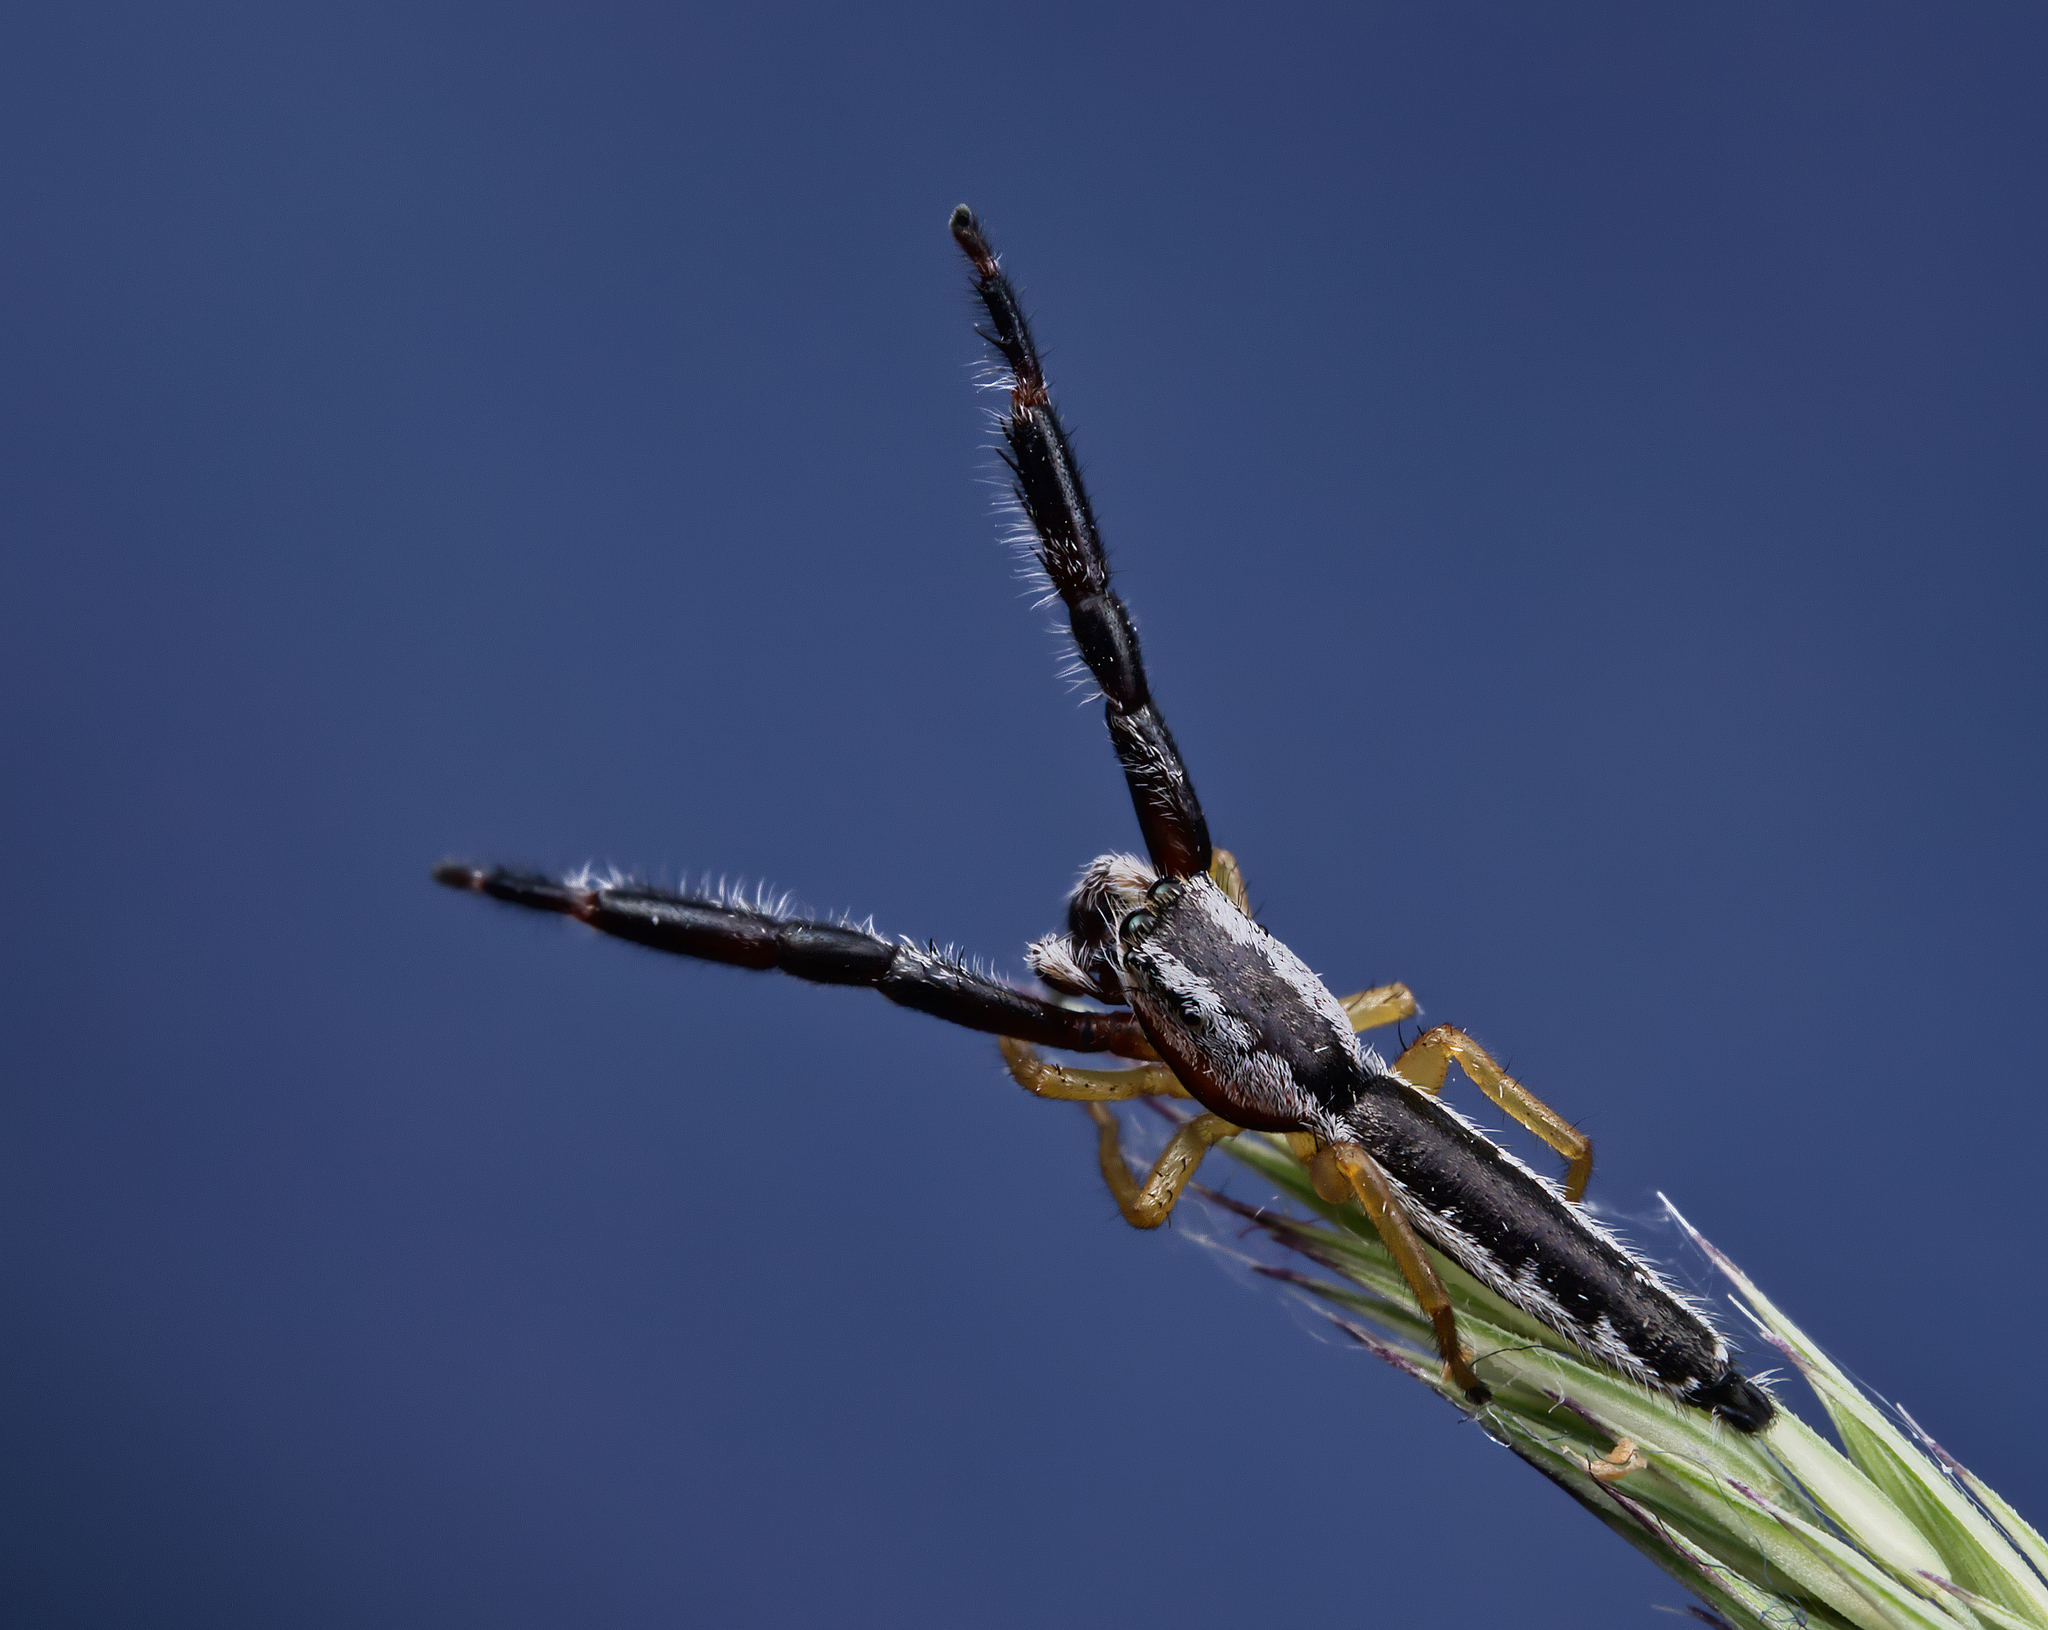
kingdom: Animalia
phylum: Arthropoda
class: Arachnida
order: Araneae
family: Salticidae
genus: Marpissa
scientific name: Marpissa pikei
